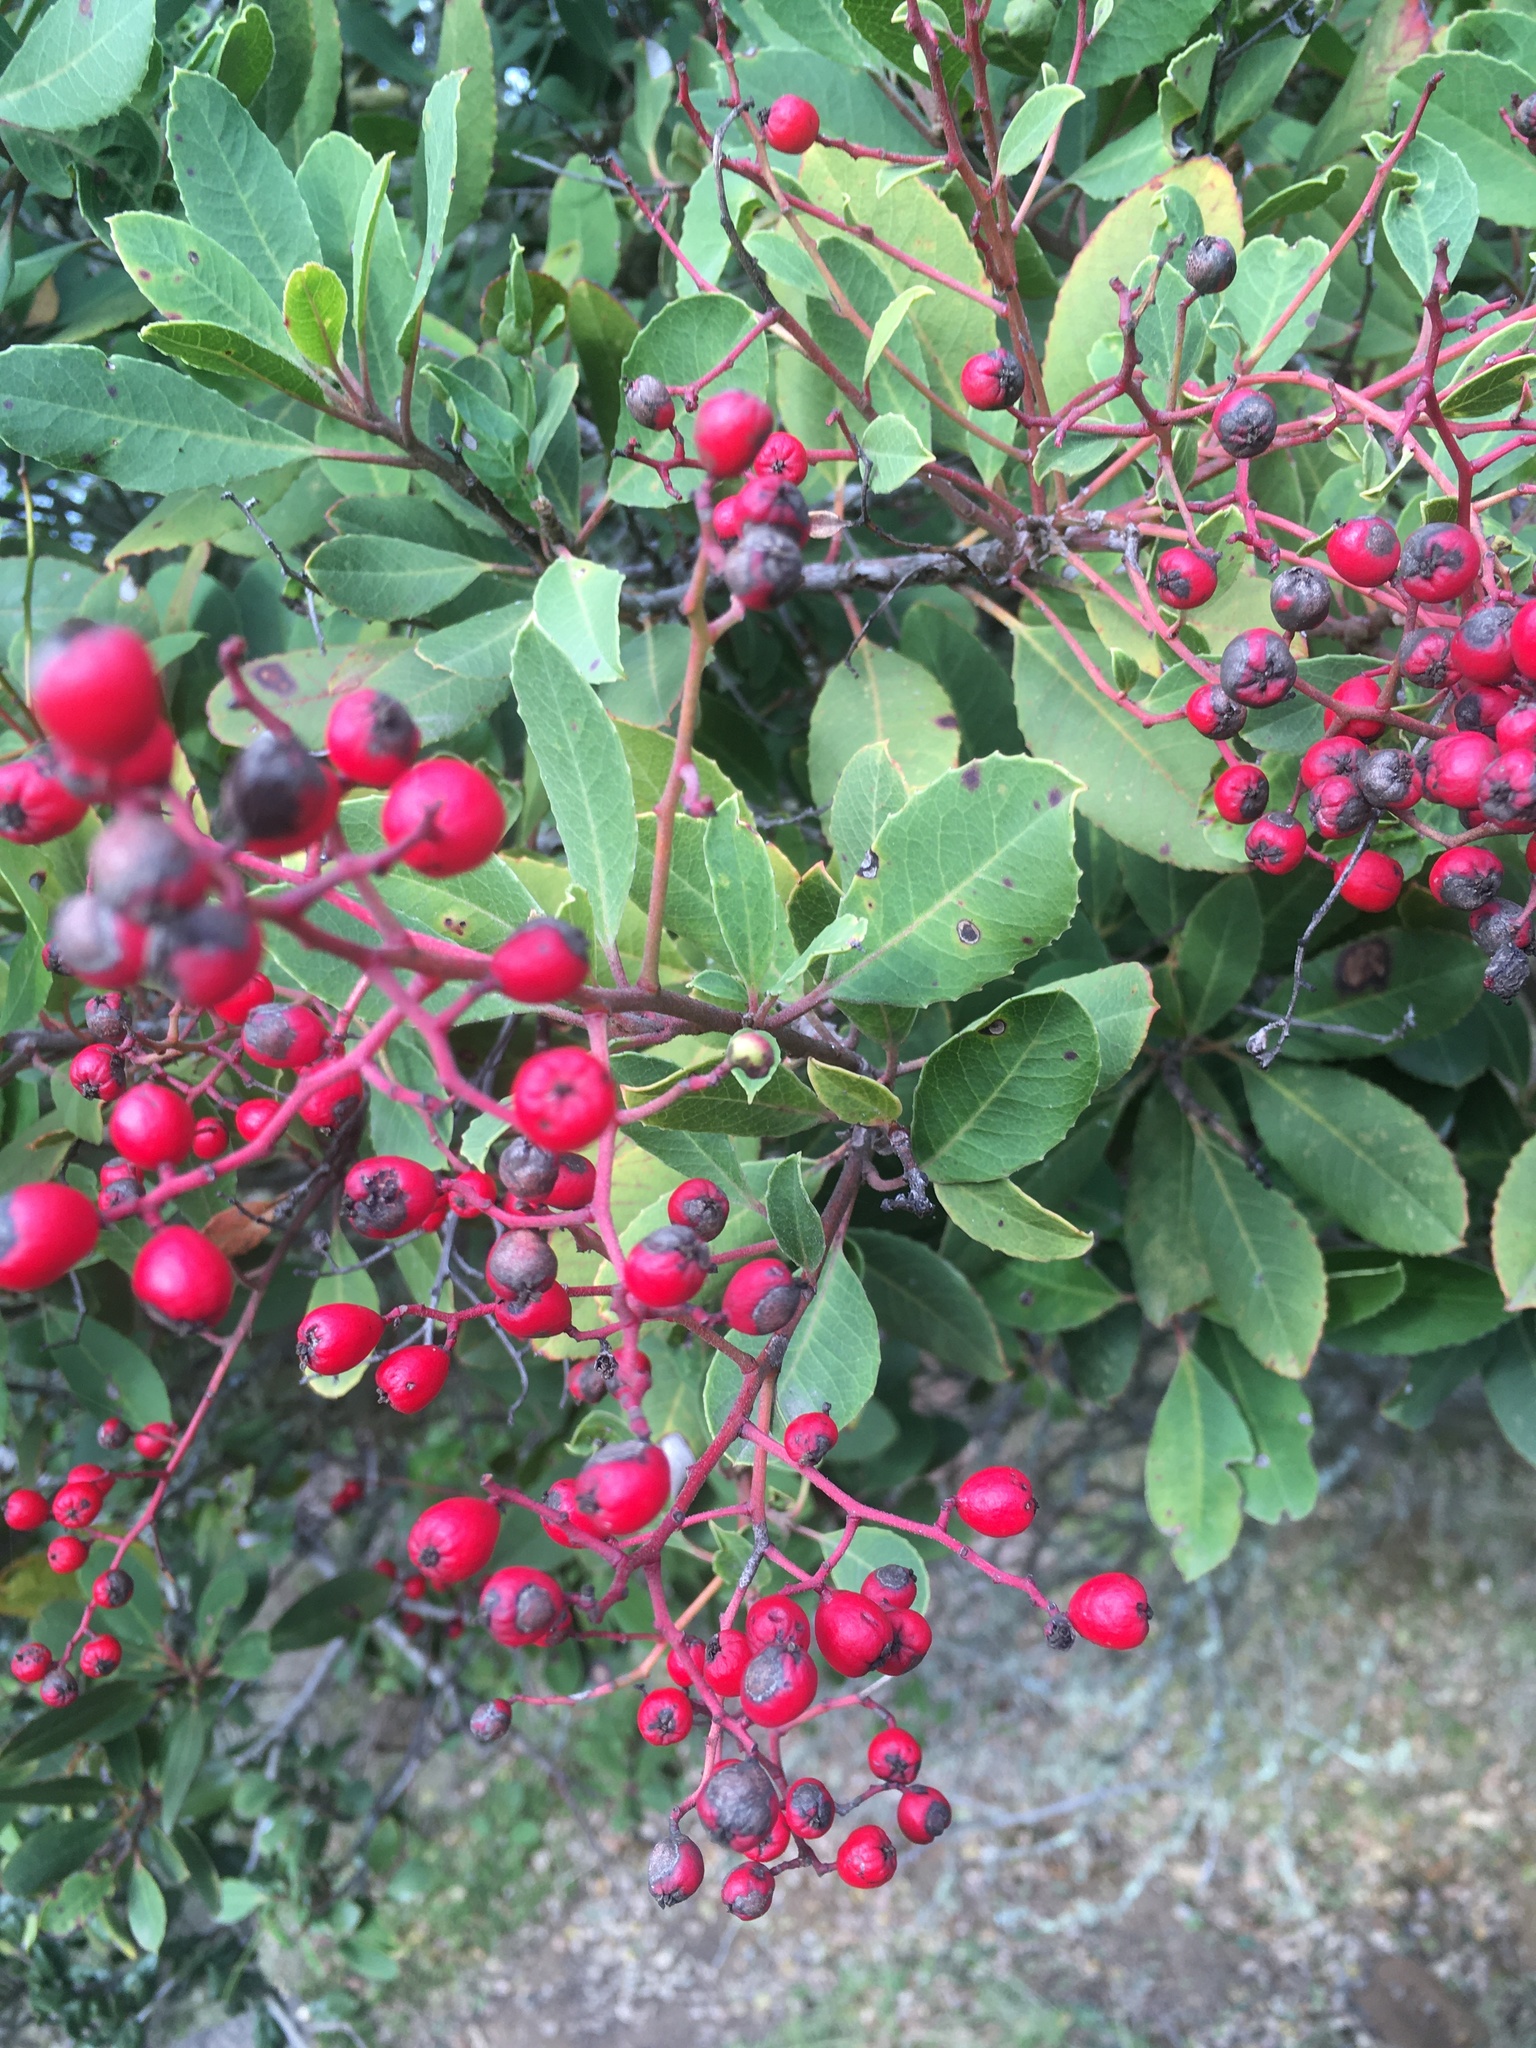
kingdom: Plantae
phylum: Tracheophyta
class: Magnoliopsida
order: Rosales
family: Rosaceae
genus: Heteromeles
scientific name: Heteromeles arbutifolia
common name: California-holly
